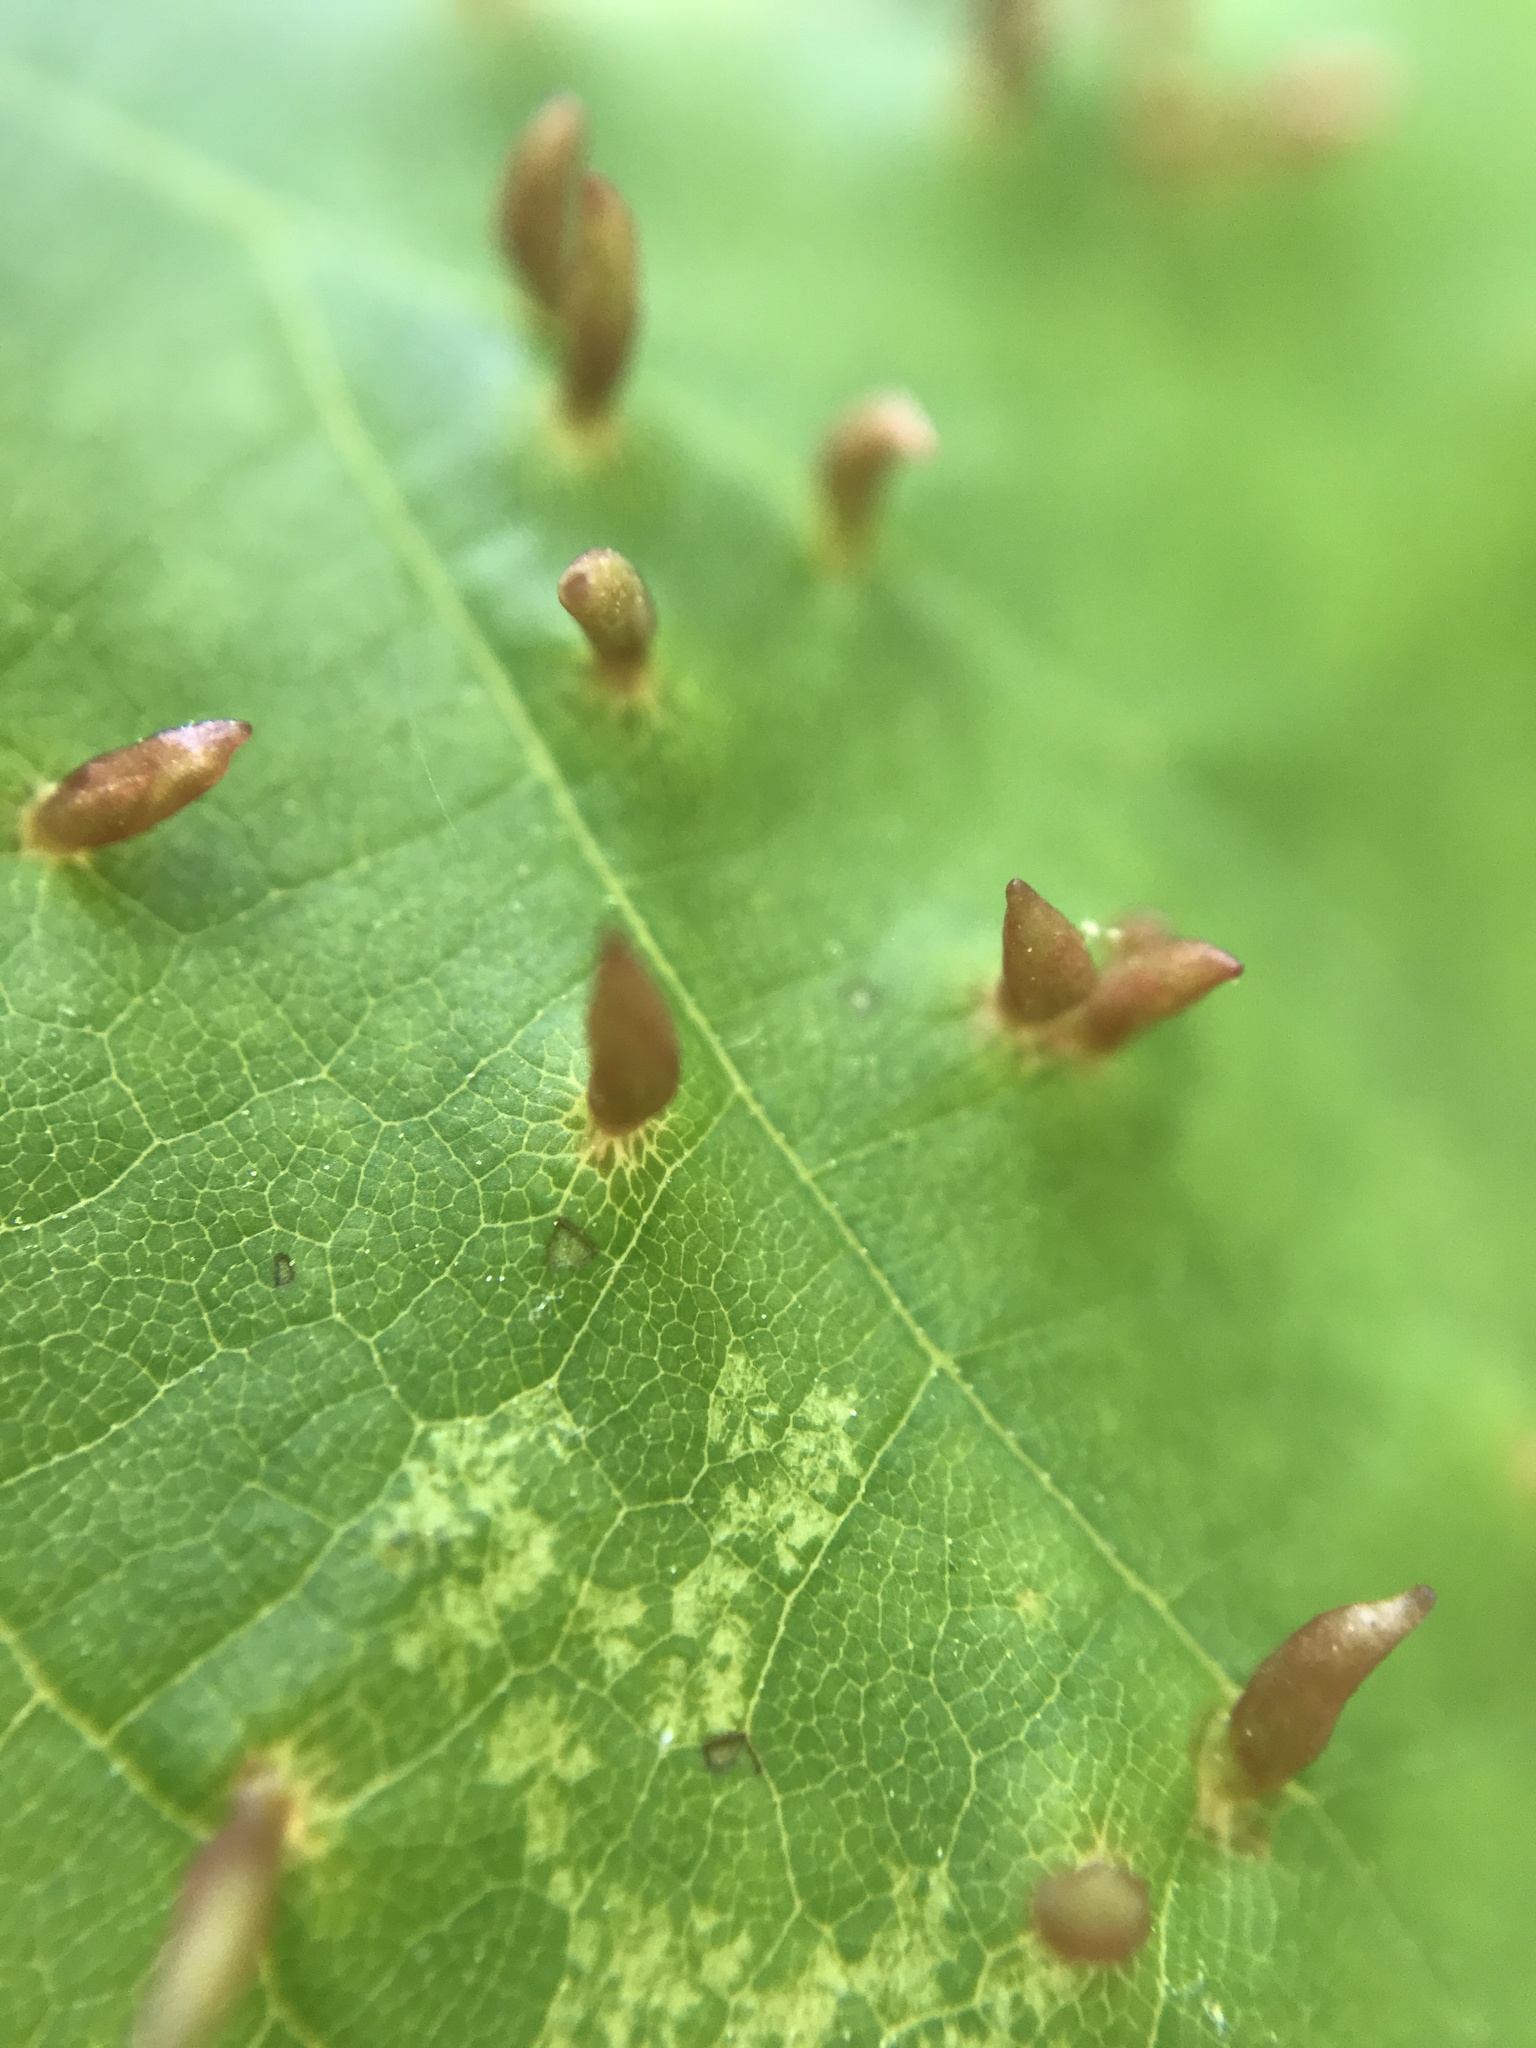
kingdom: Animalia
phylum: Arthropoda
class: Arachnida
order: Trombidiformes
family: Eriophyidae
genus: Vasates
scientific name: Vasates aceriscrumena
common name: Maple spindle gall mite
